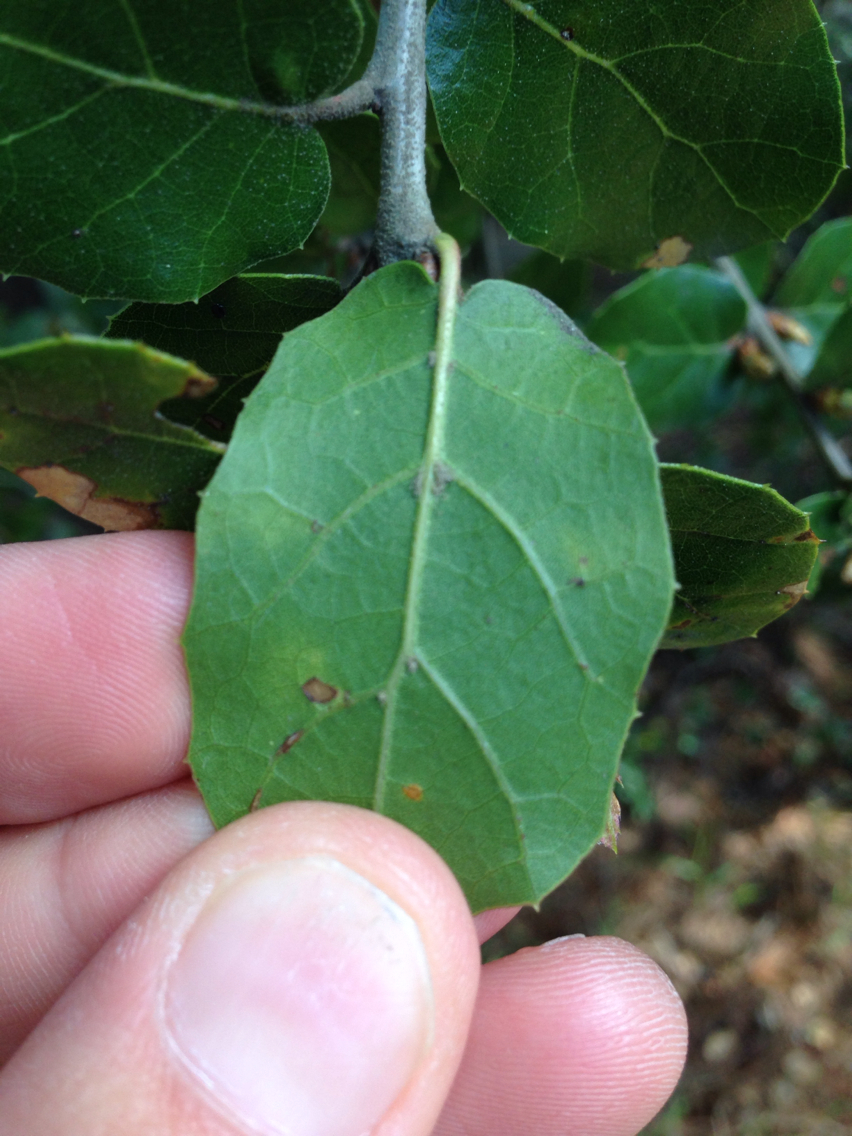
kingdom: Plantae
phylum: Tracheophyta
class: Magnoliopsida
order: Fagales
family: Fagaceae
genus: Quercus
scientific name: Quercus agrifolia
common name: California live oak
